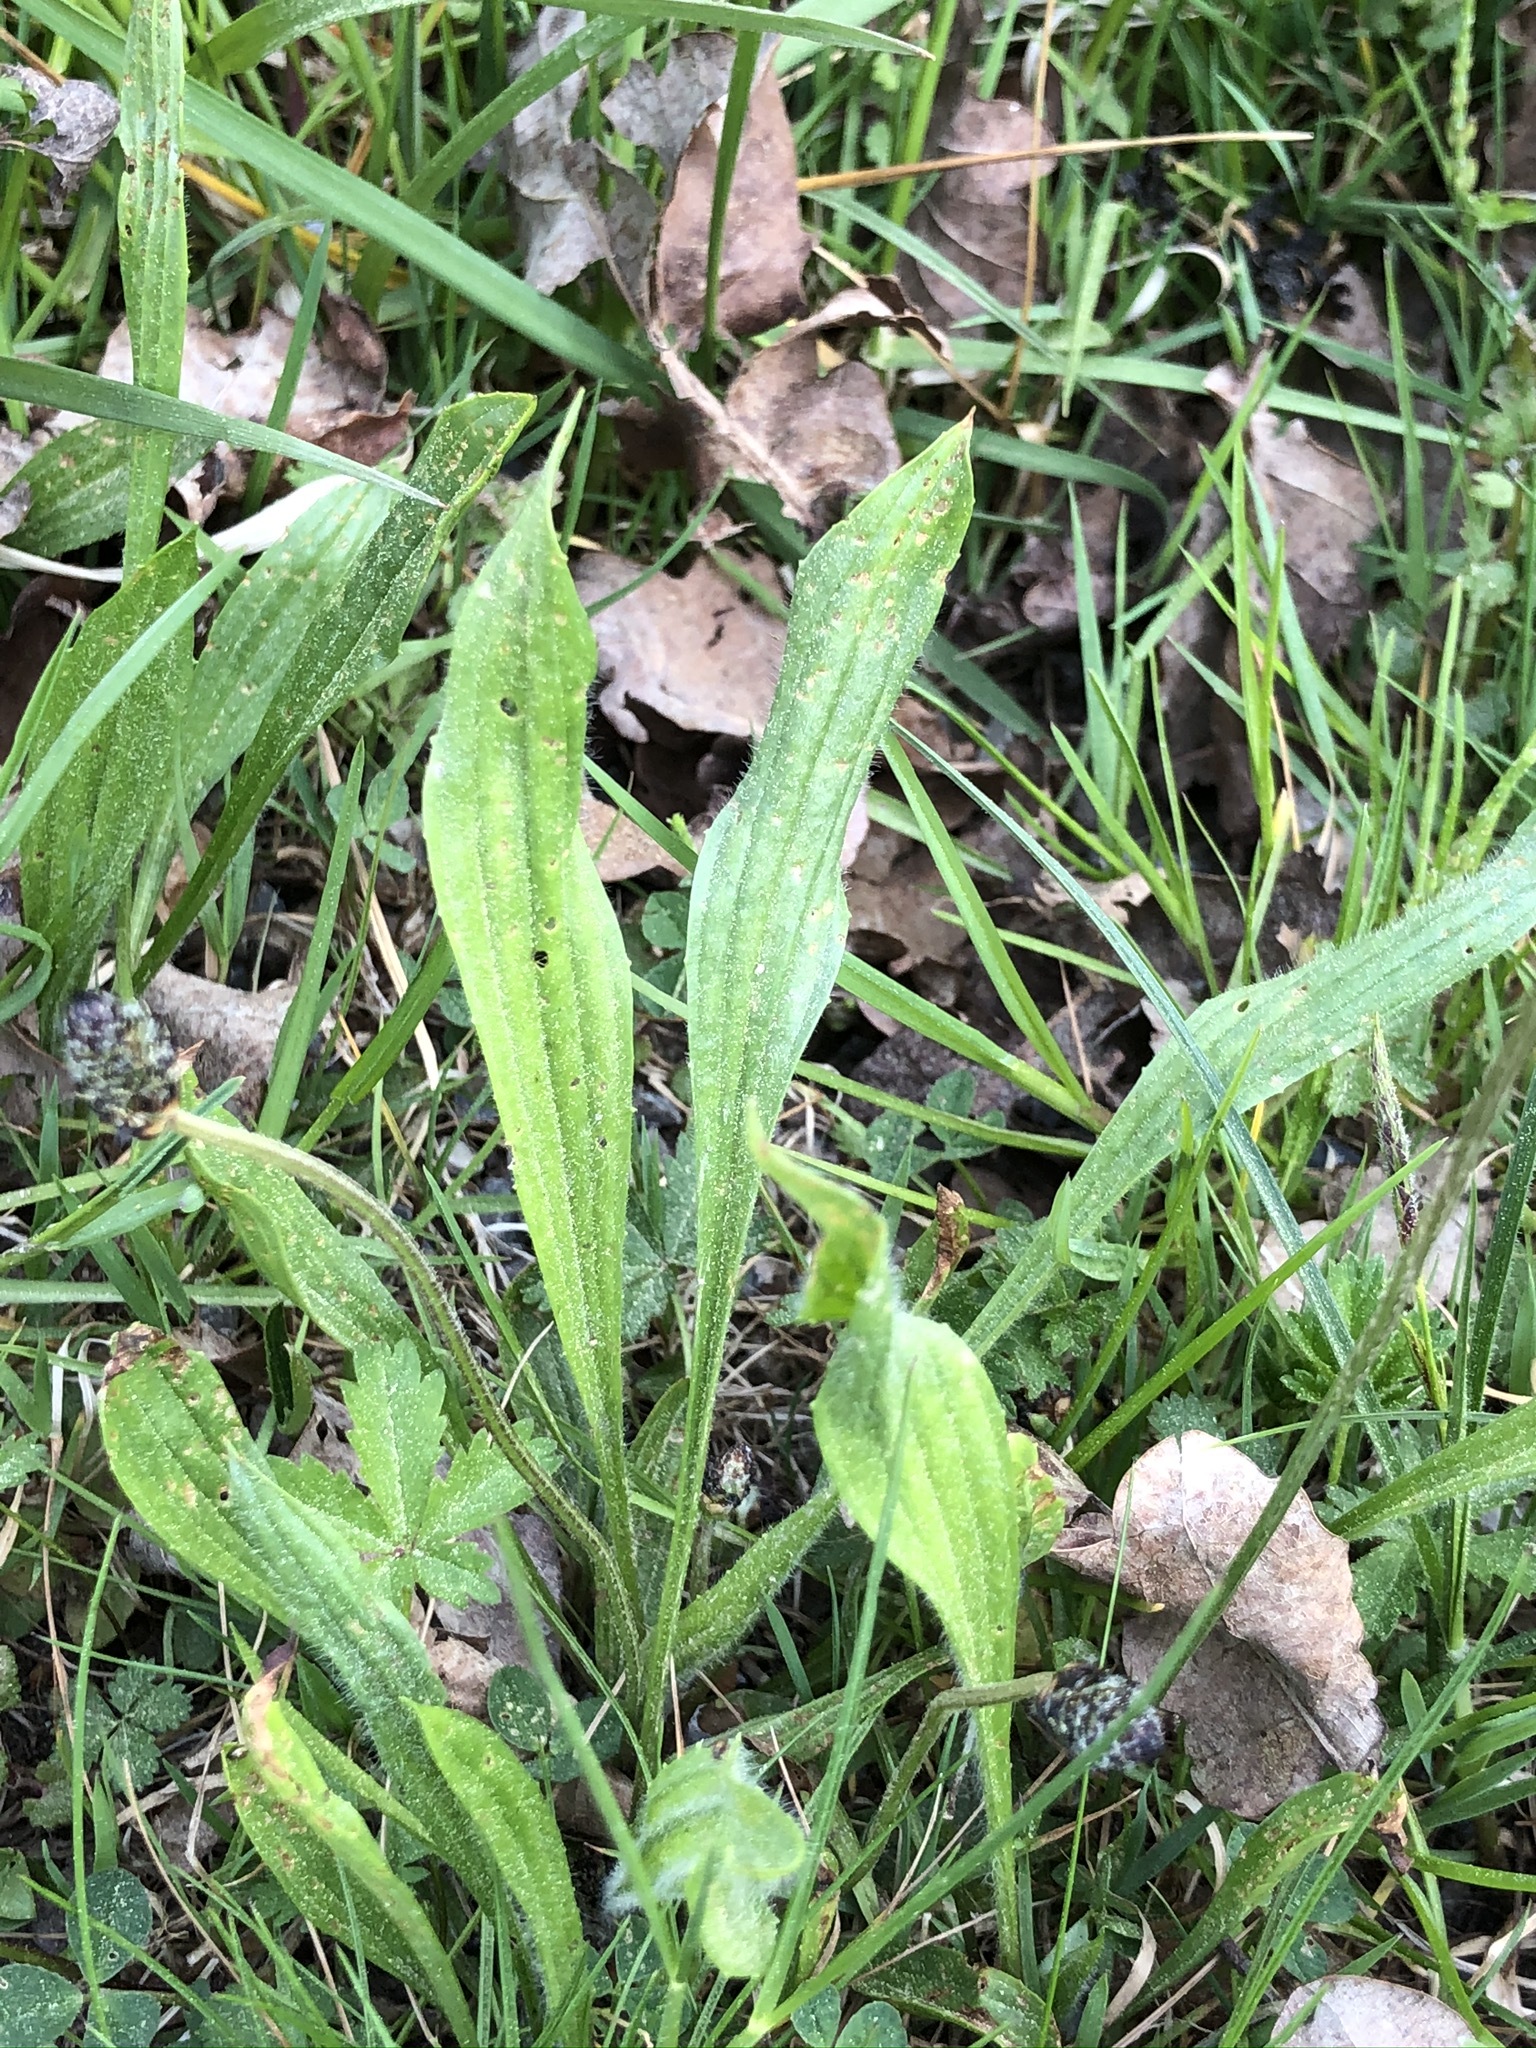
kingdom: Plantae
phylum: Tracheophyta
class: Magnoliopsida
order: Lamiales
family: Plantaginaceae
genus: Plantago
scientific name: Plantago lanceolata
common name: Ribwort plantain
